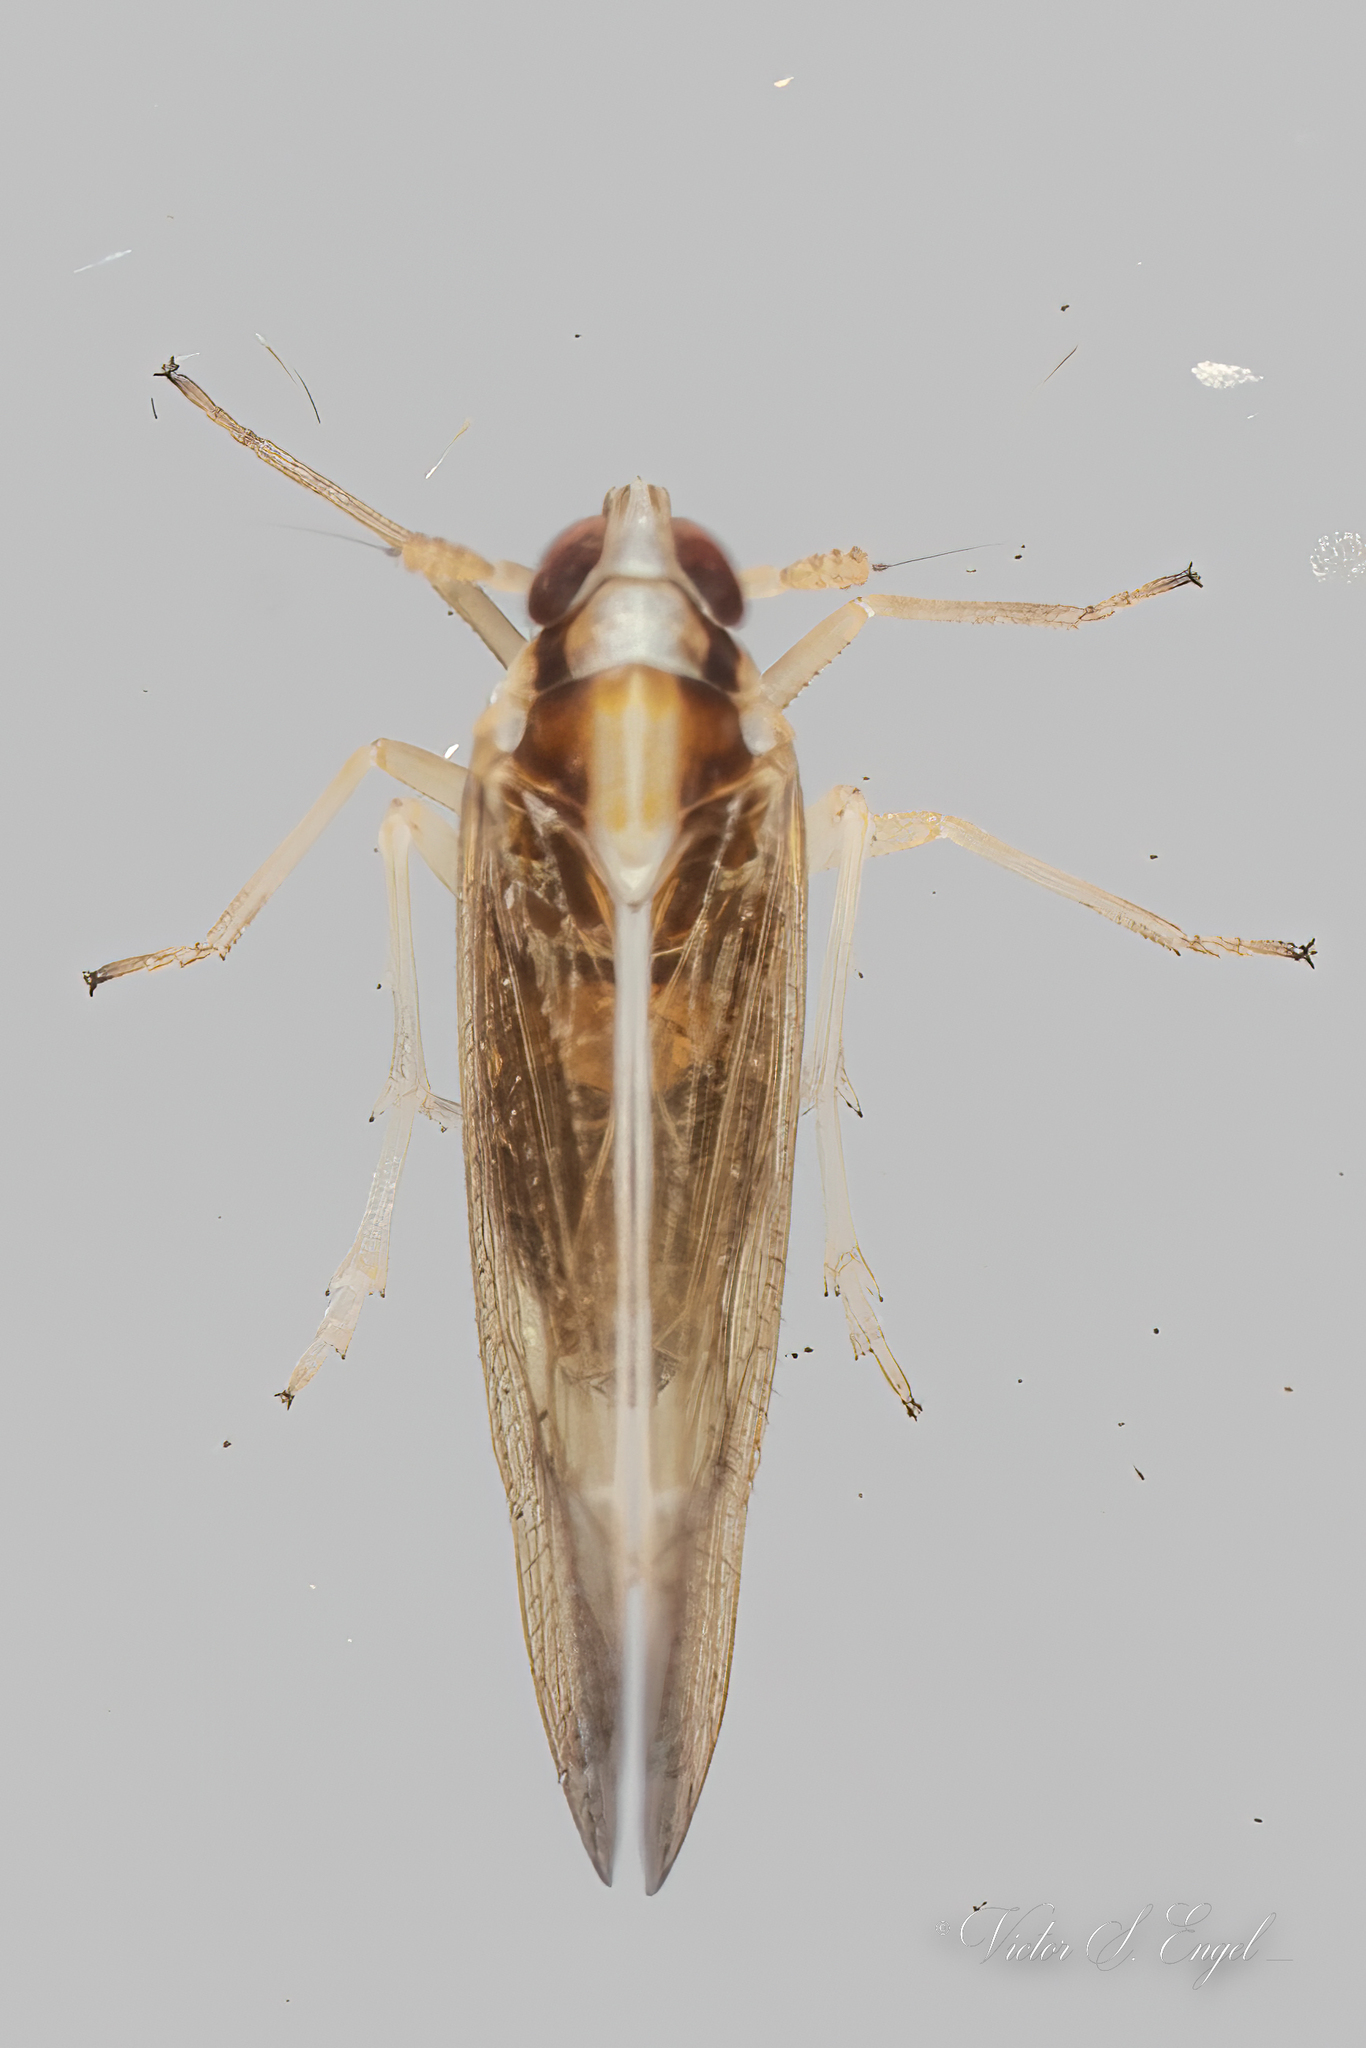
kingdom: Animalia
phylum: Arthropoda
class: Insecta
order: Hemiptera
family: Delphacidae
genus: Tagosodes
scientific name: Tagosodes orizicolus
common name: Delphacid planthopper
